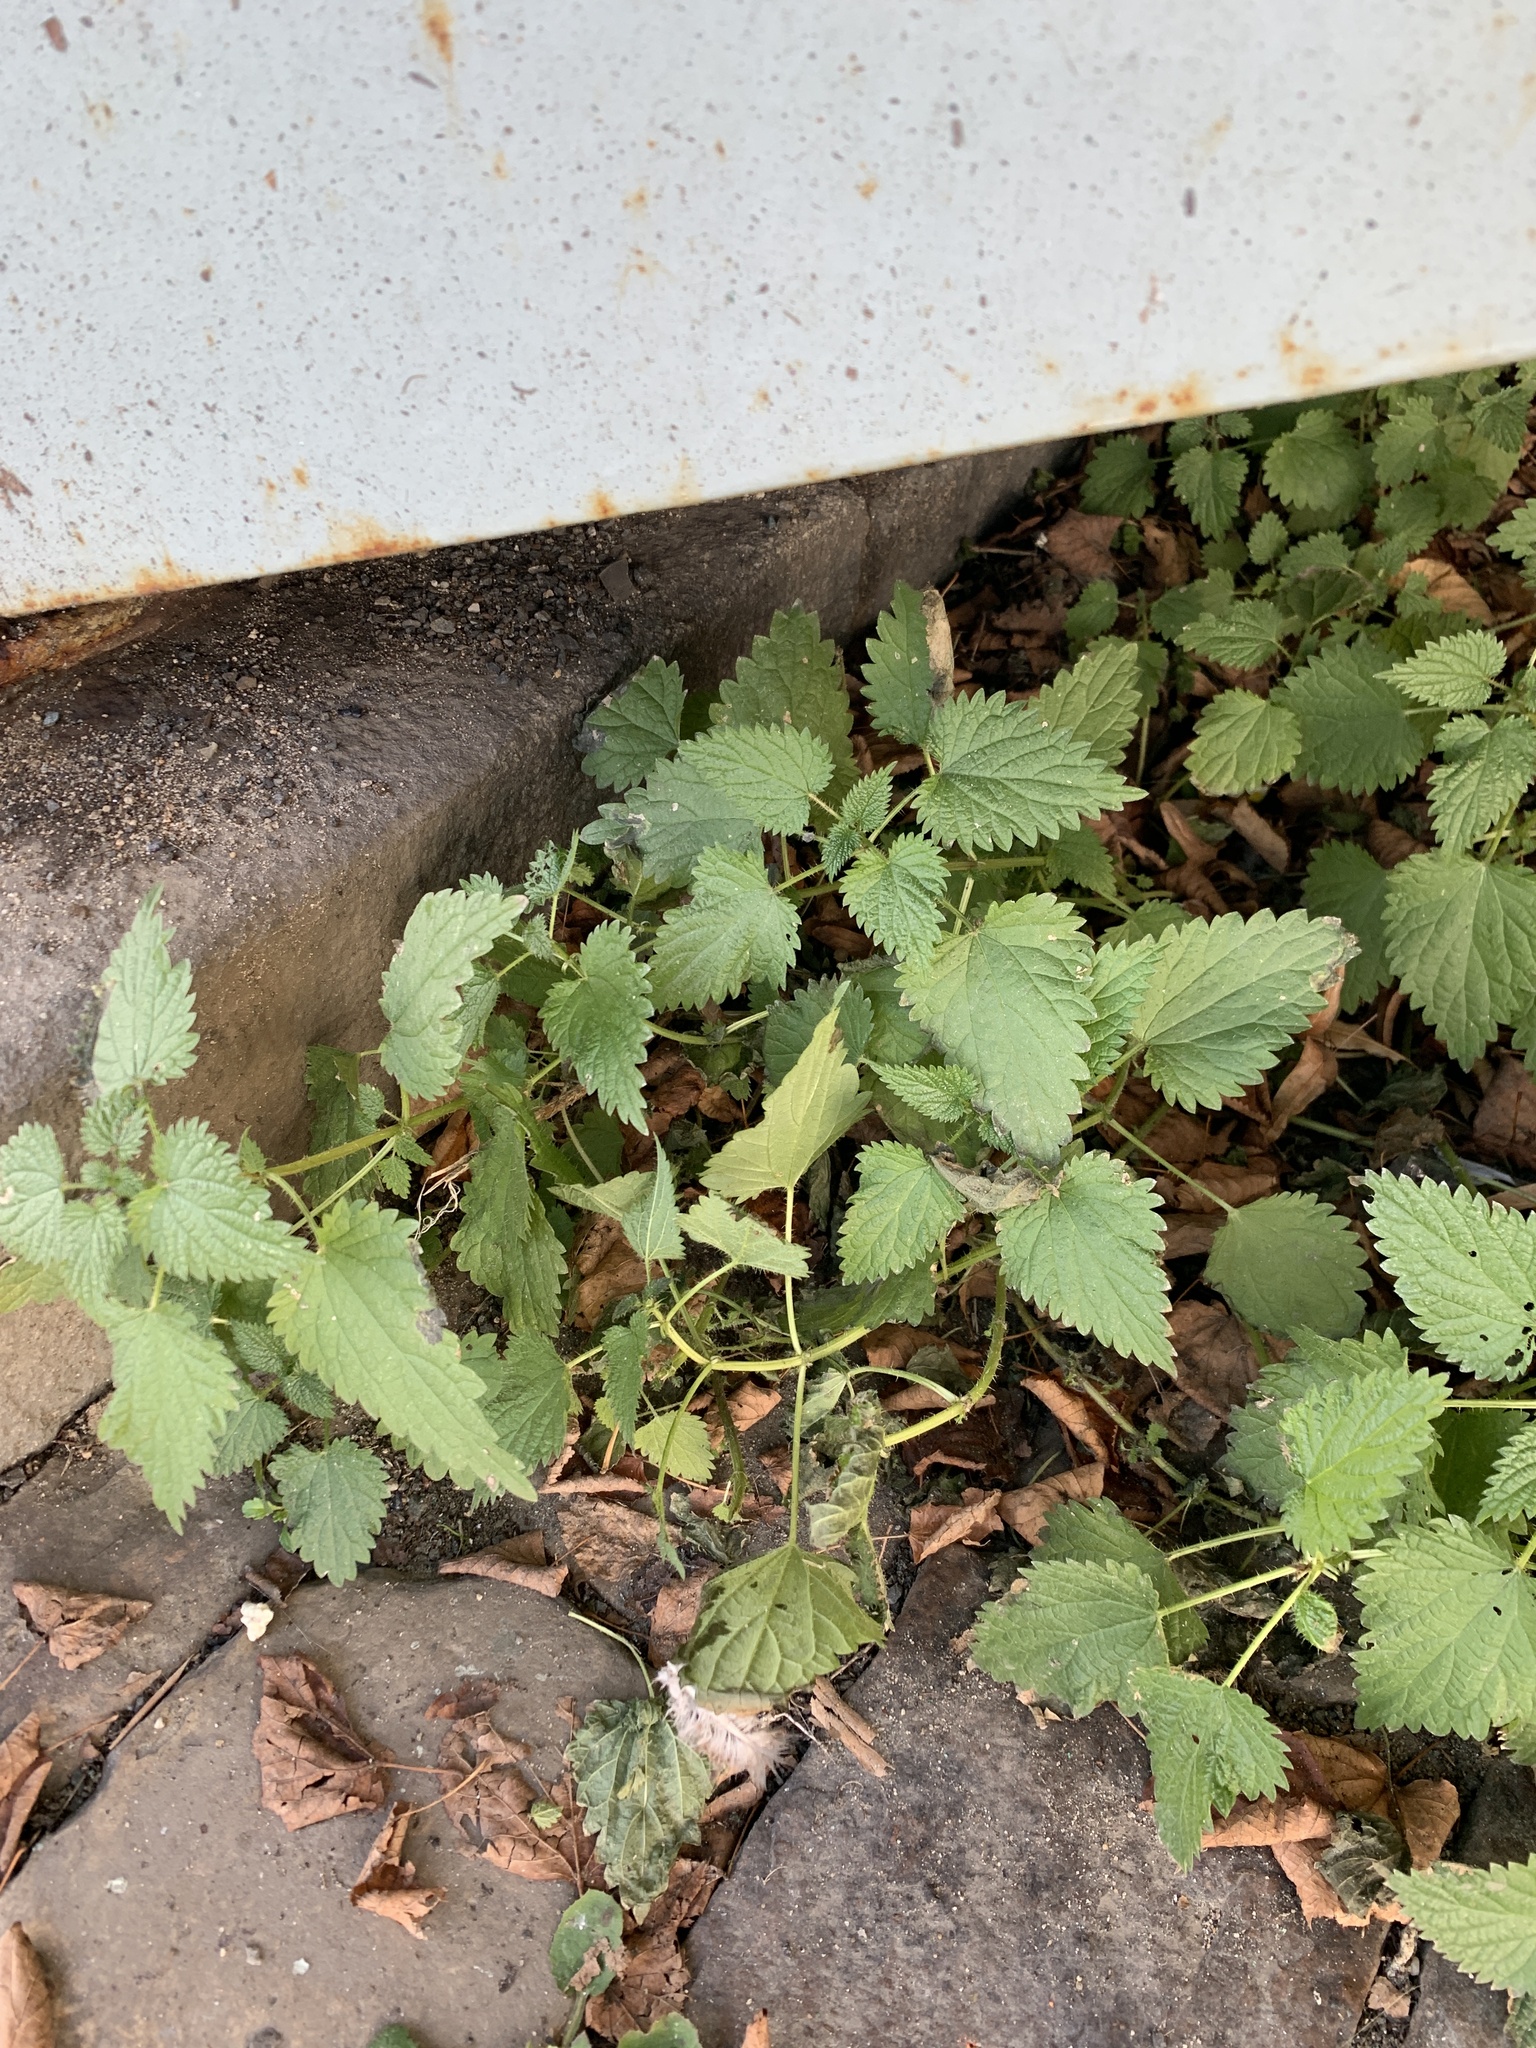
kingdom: Plantae
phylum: Tracheophyta
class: Magnoliopsida
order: Rosales
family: Urticaceae
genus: Urtica
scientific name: Urtica dioica
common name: Common nettle
